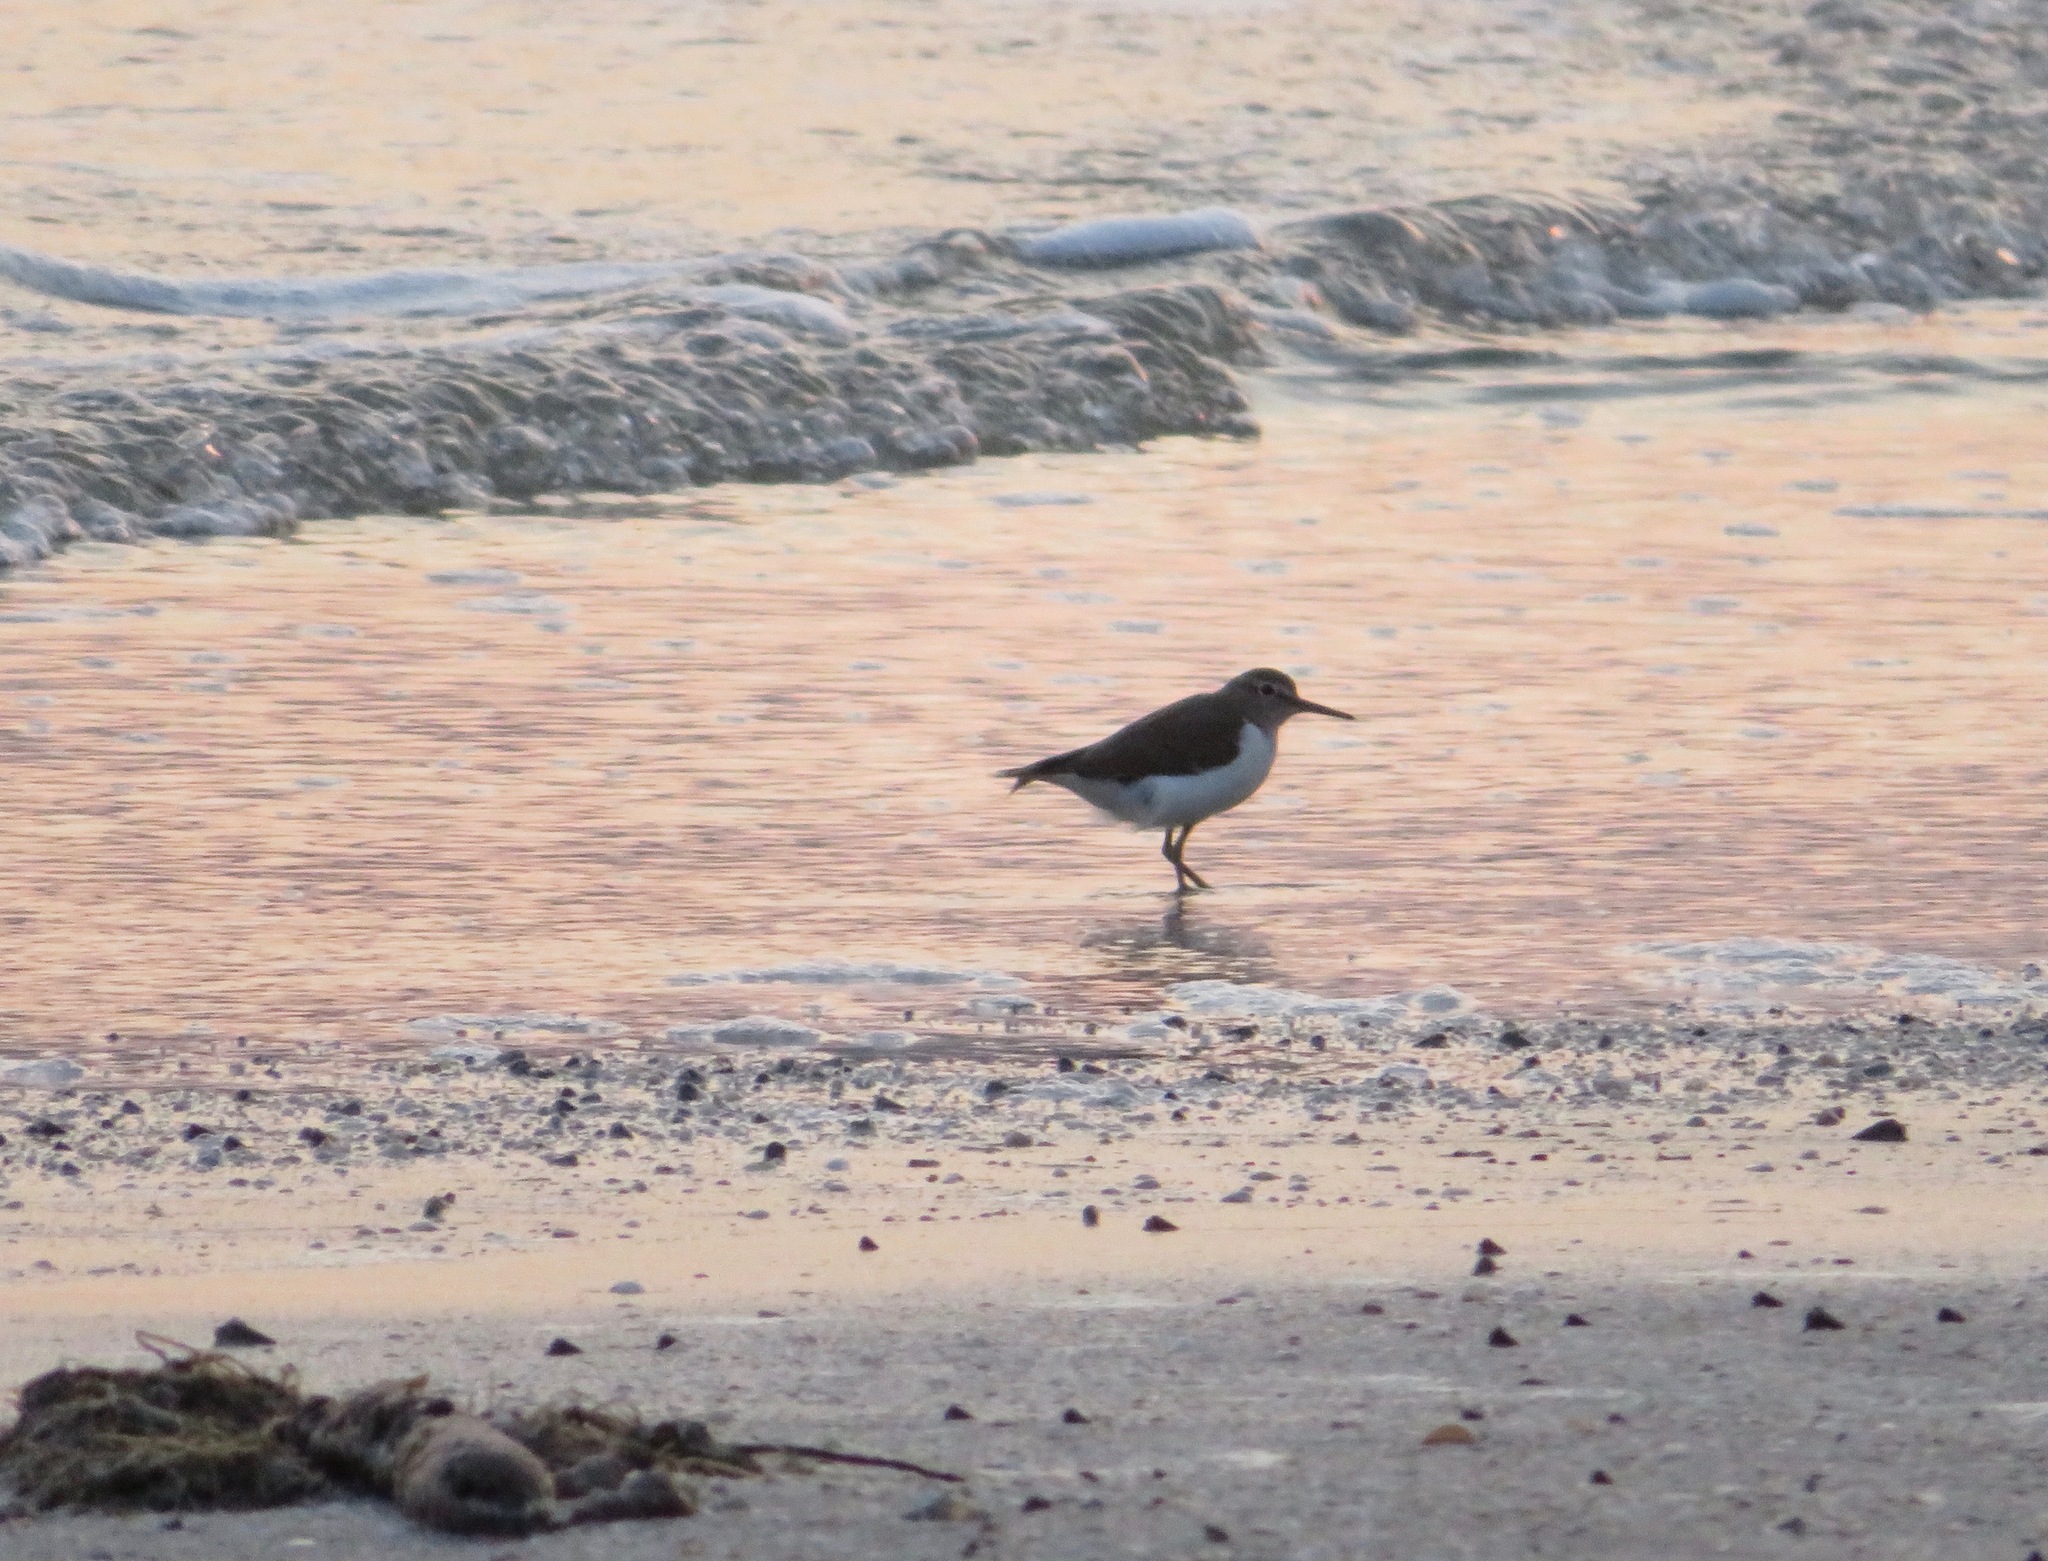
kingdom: Animalia
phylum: Chordata
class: Aves
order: Charadriiformes
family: Scolopacidae
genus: Actitis
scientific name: Actitis hypoleucos
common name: Common sandpiper
